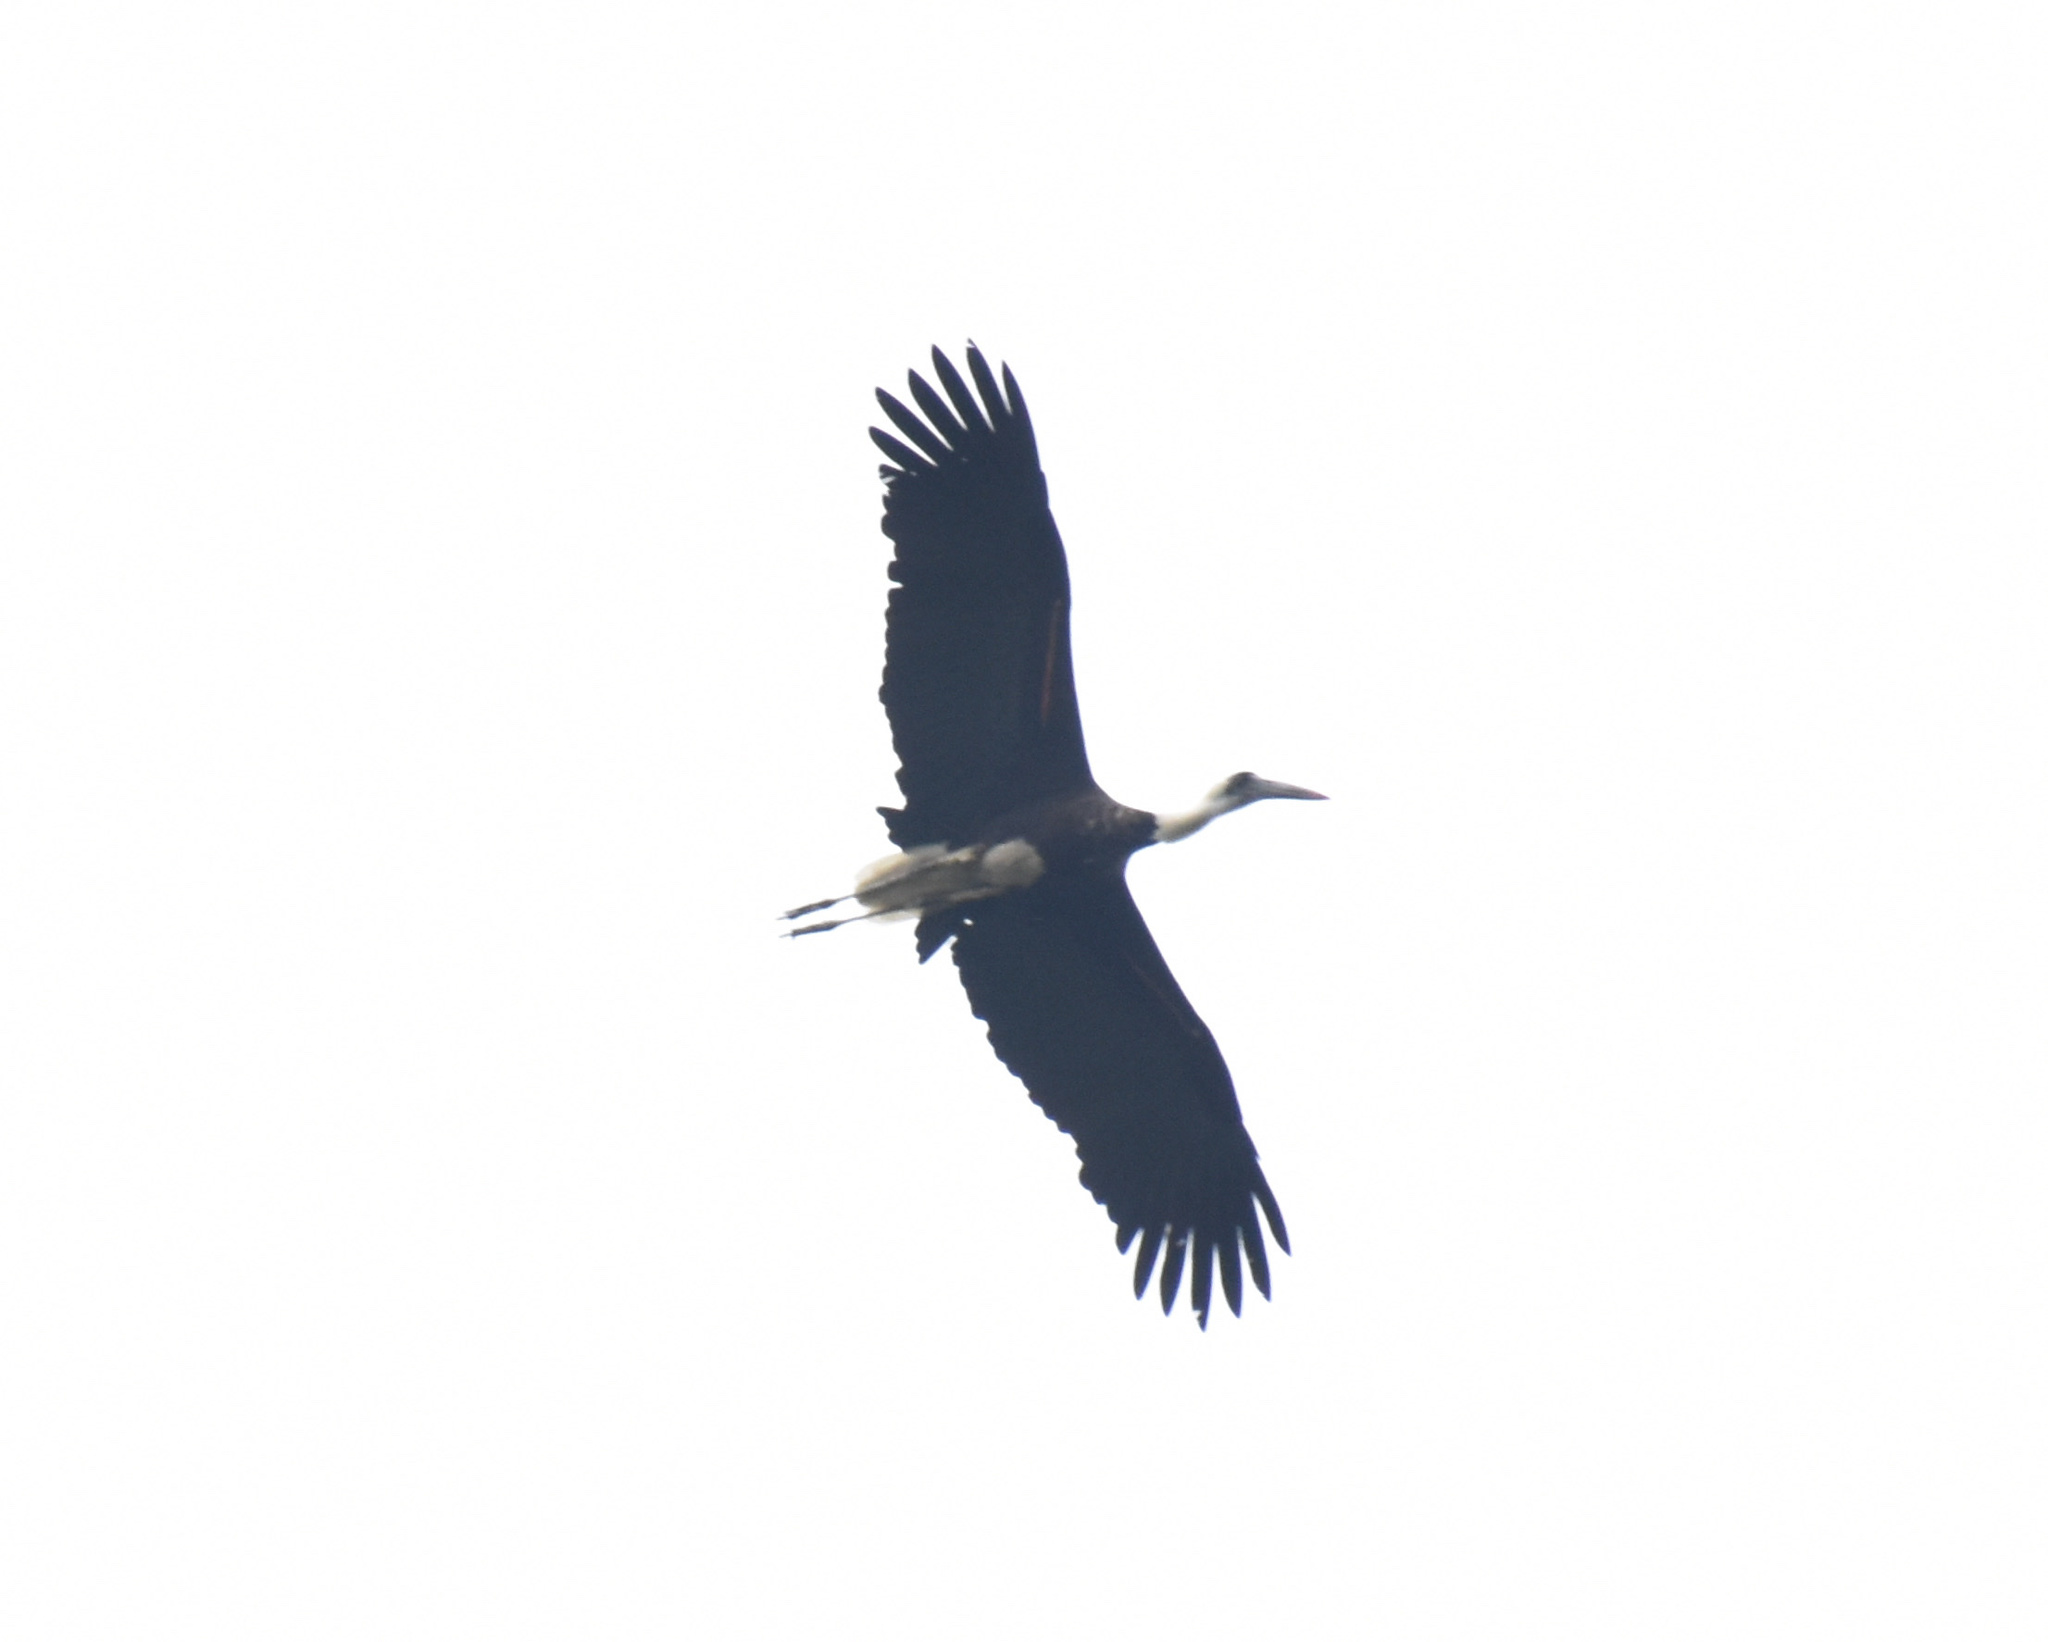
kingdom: Animalia
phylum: Chordata
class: Aves
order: Ciconiiformes
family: Ciconiidae
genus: Ciconia
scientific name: Ciconia microscelis
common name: African woollyneck
